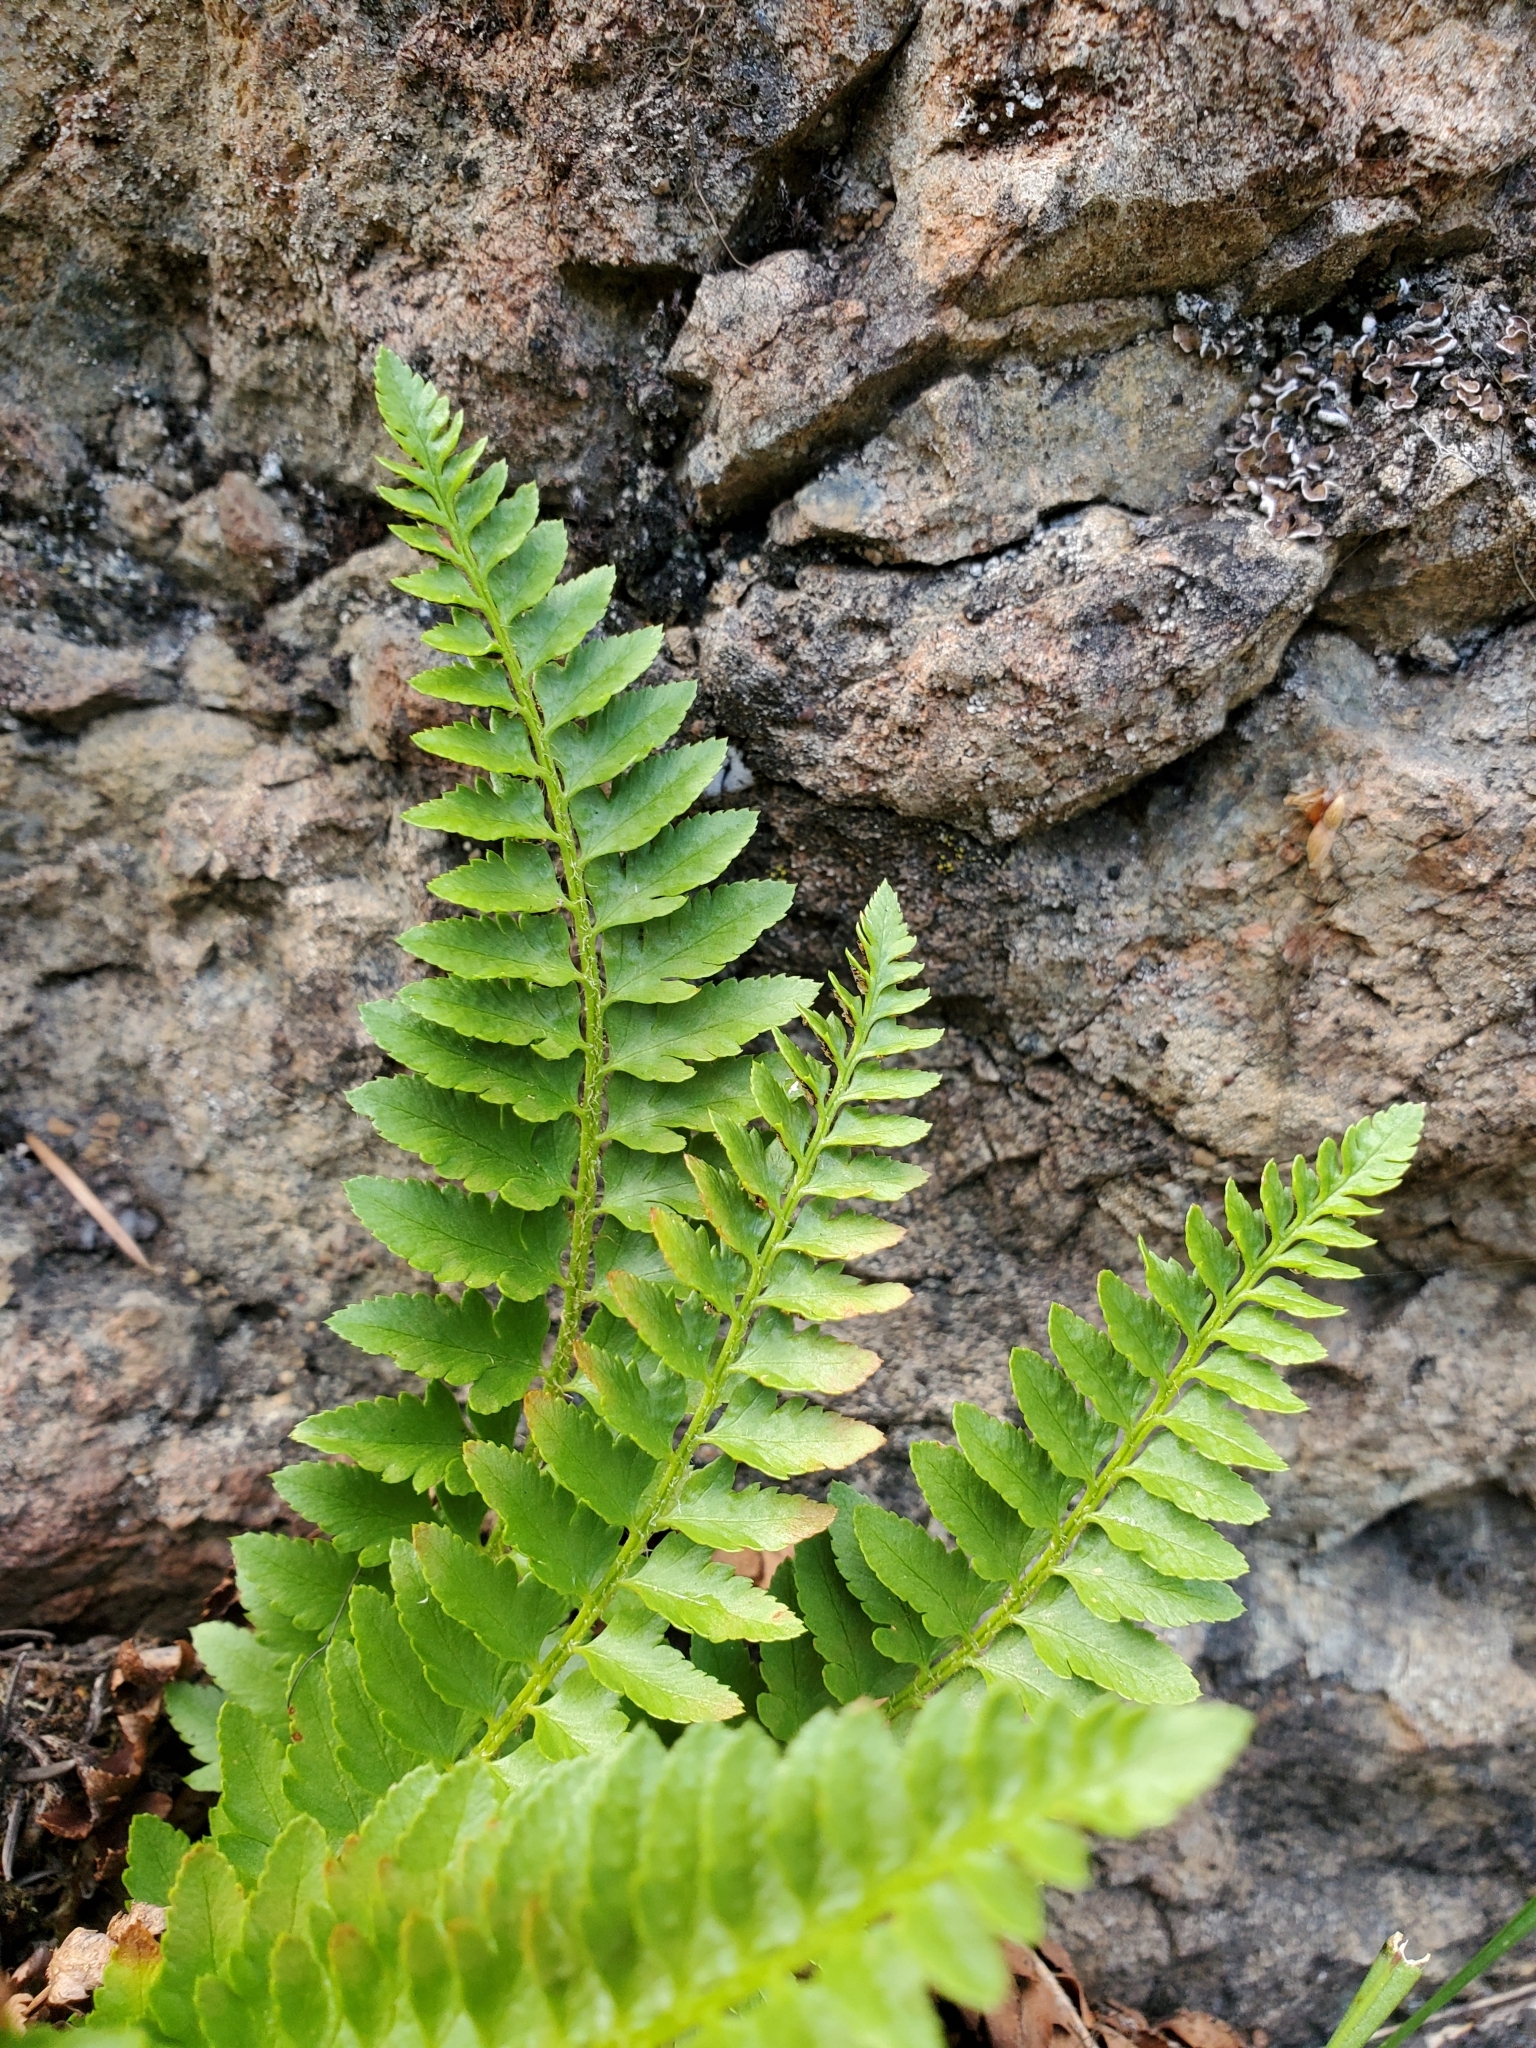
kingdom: Plantae
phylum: Tracheophyta
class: Polypodiopsida
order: Polypodiales
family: Dryopteridaceae
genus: Polystichum
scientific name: Polystichum scopulinum
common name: Eaton's shield fern
